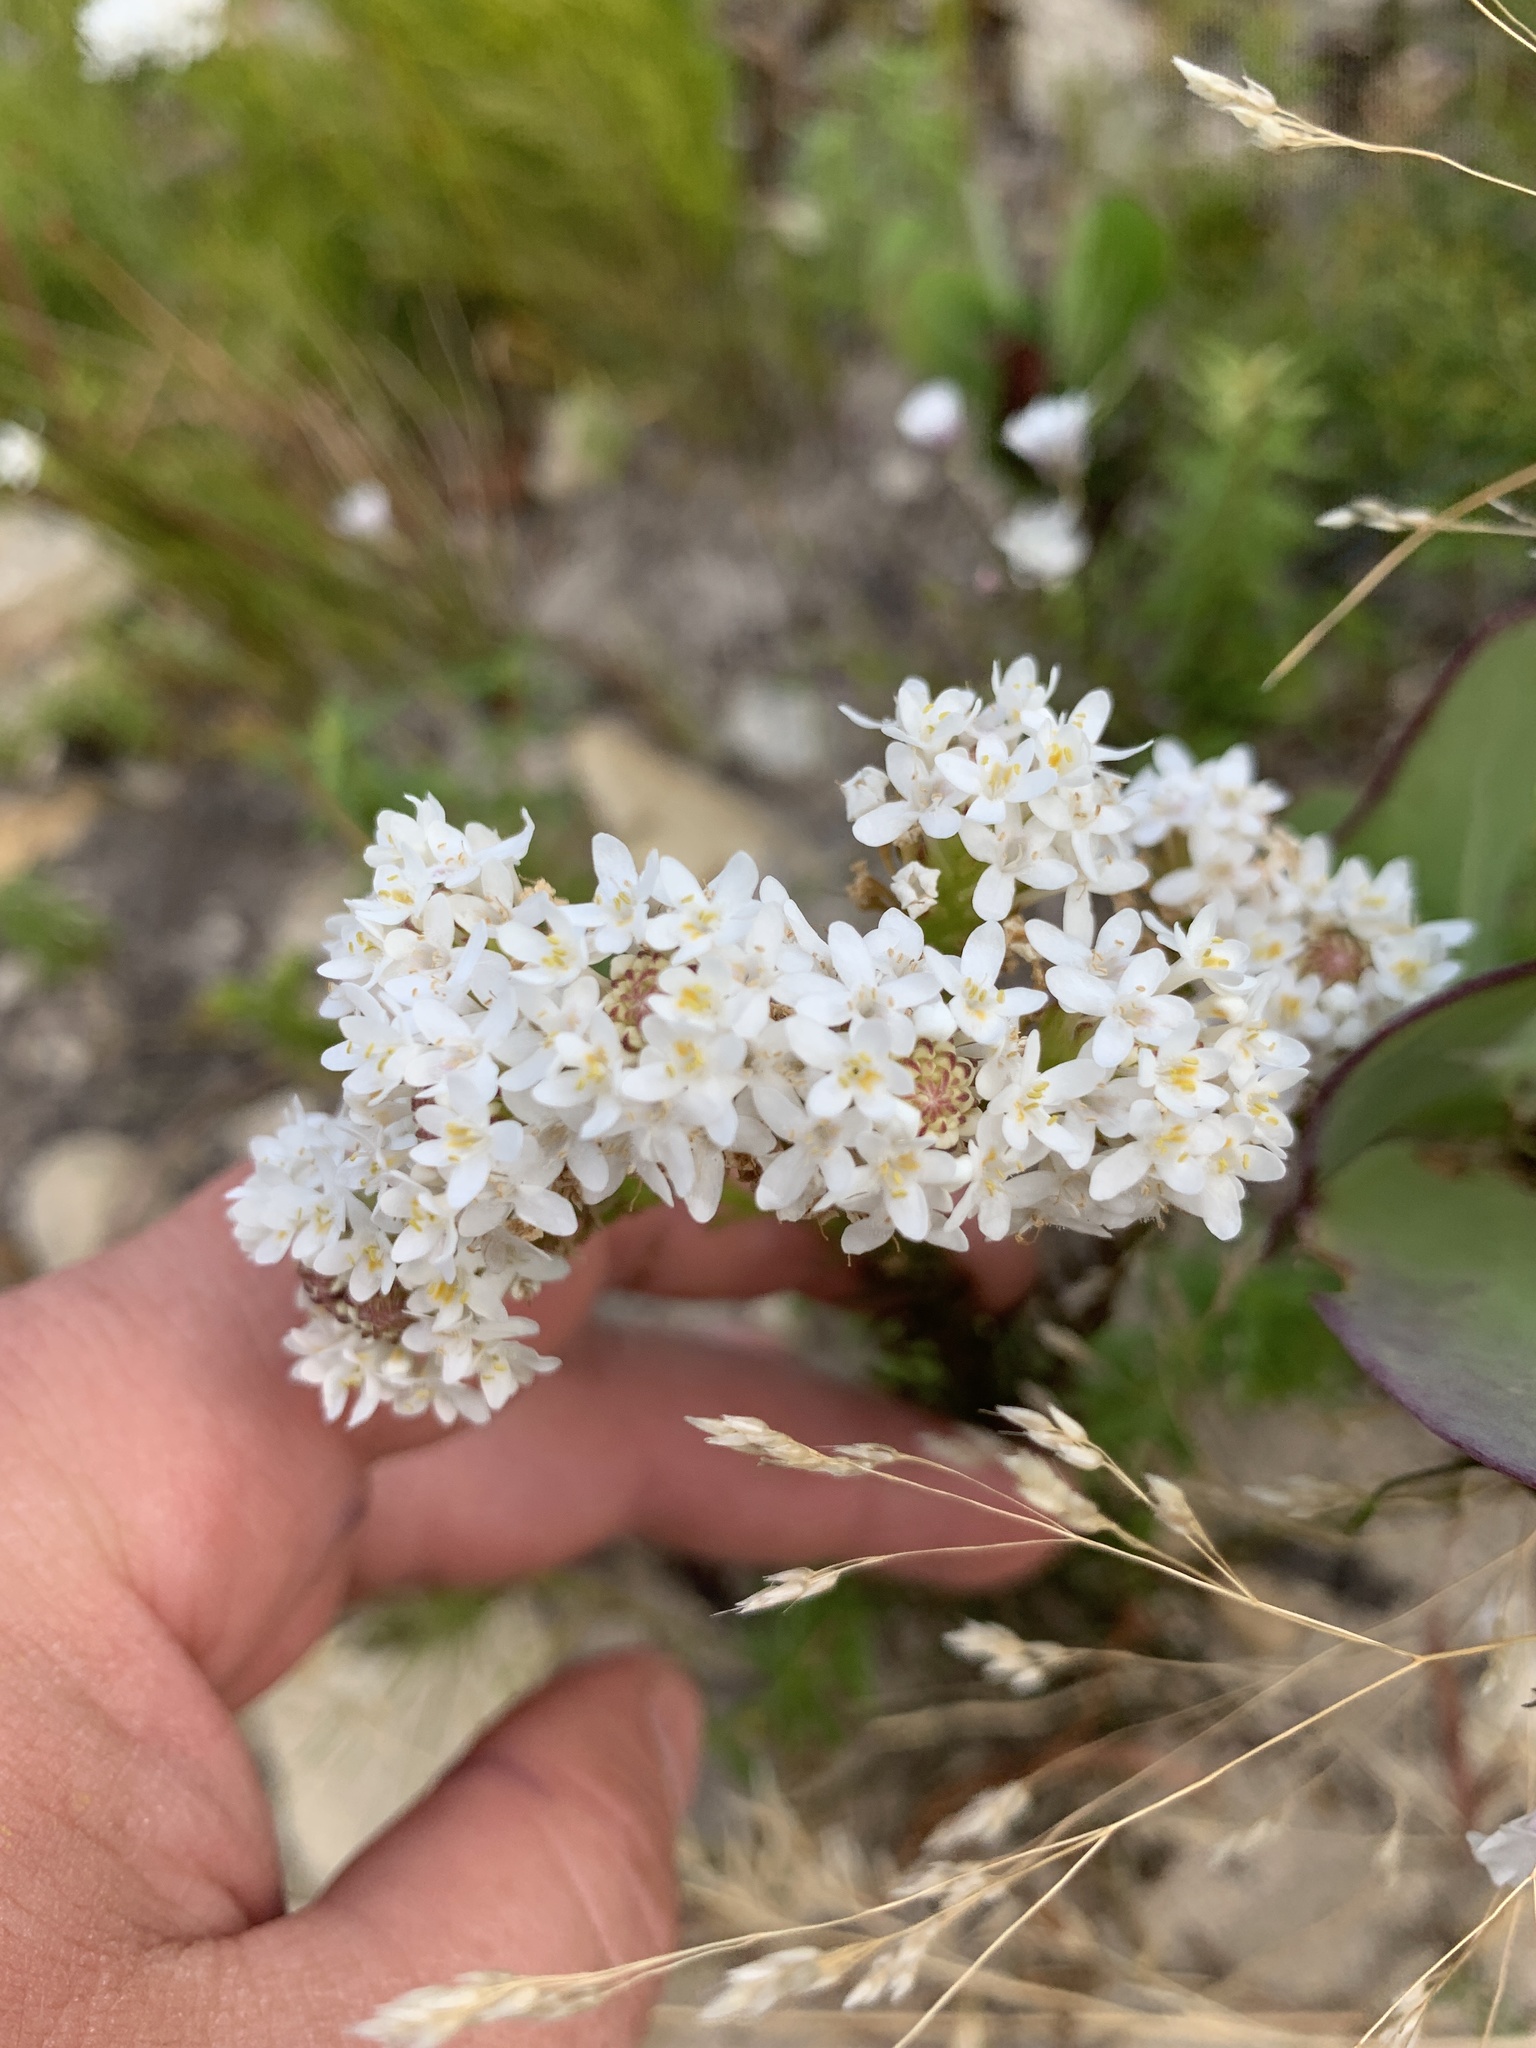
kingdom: Plantae
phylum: Tracheophyta
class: Magnoliopsida
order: Lamiales
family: Scrophulariaceae
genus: Pseudoselago
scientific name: Pseudoselago spuria
